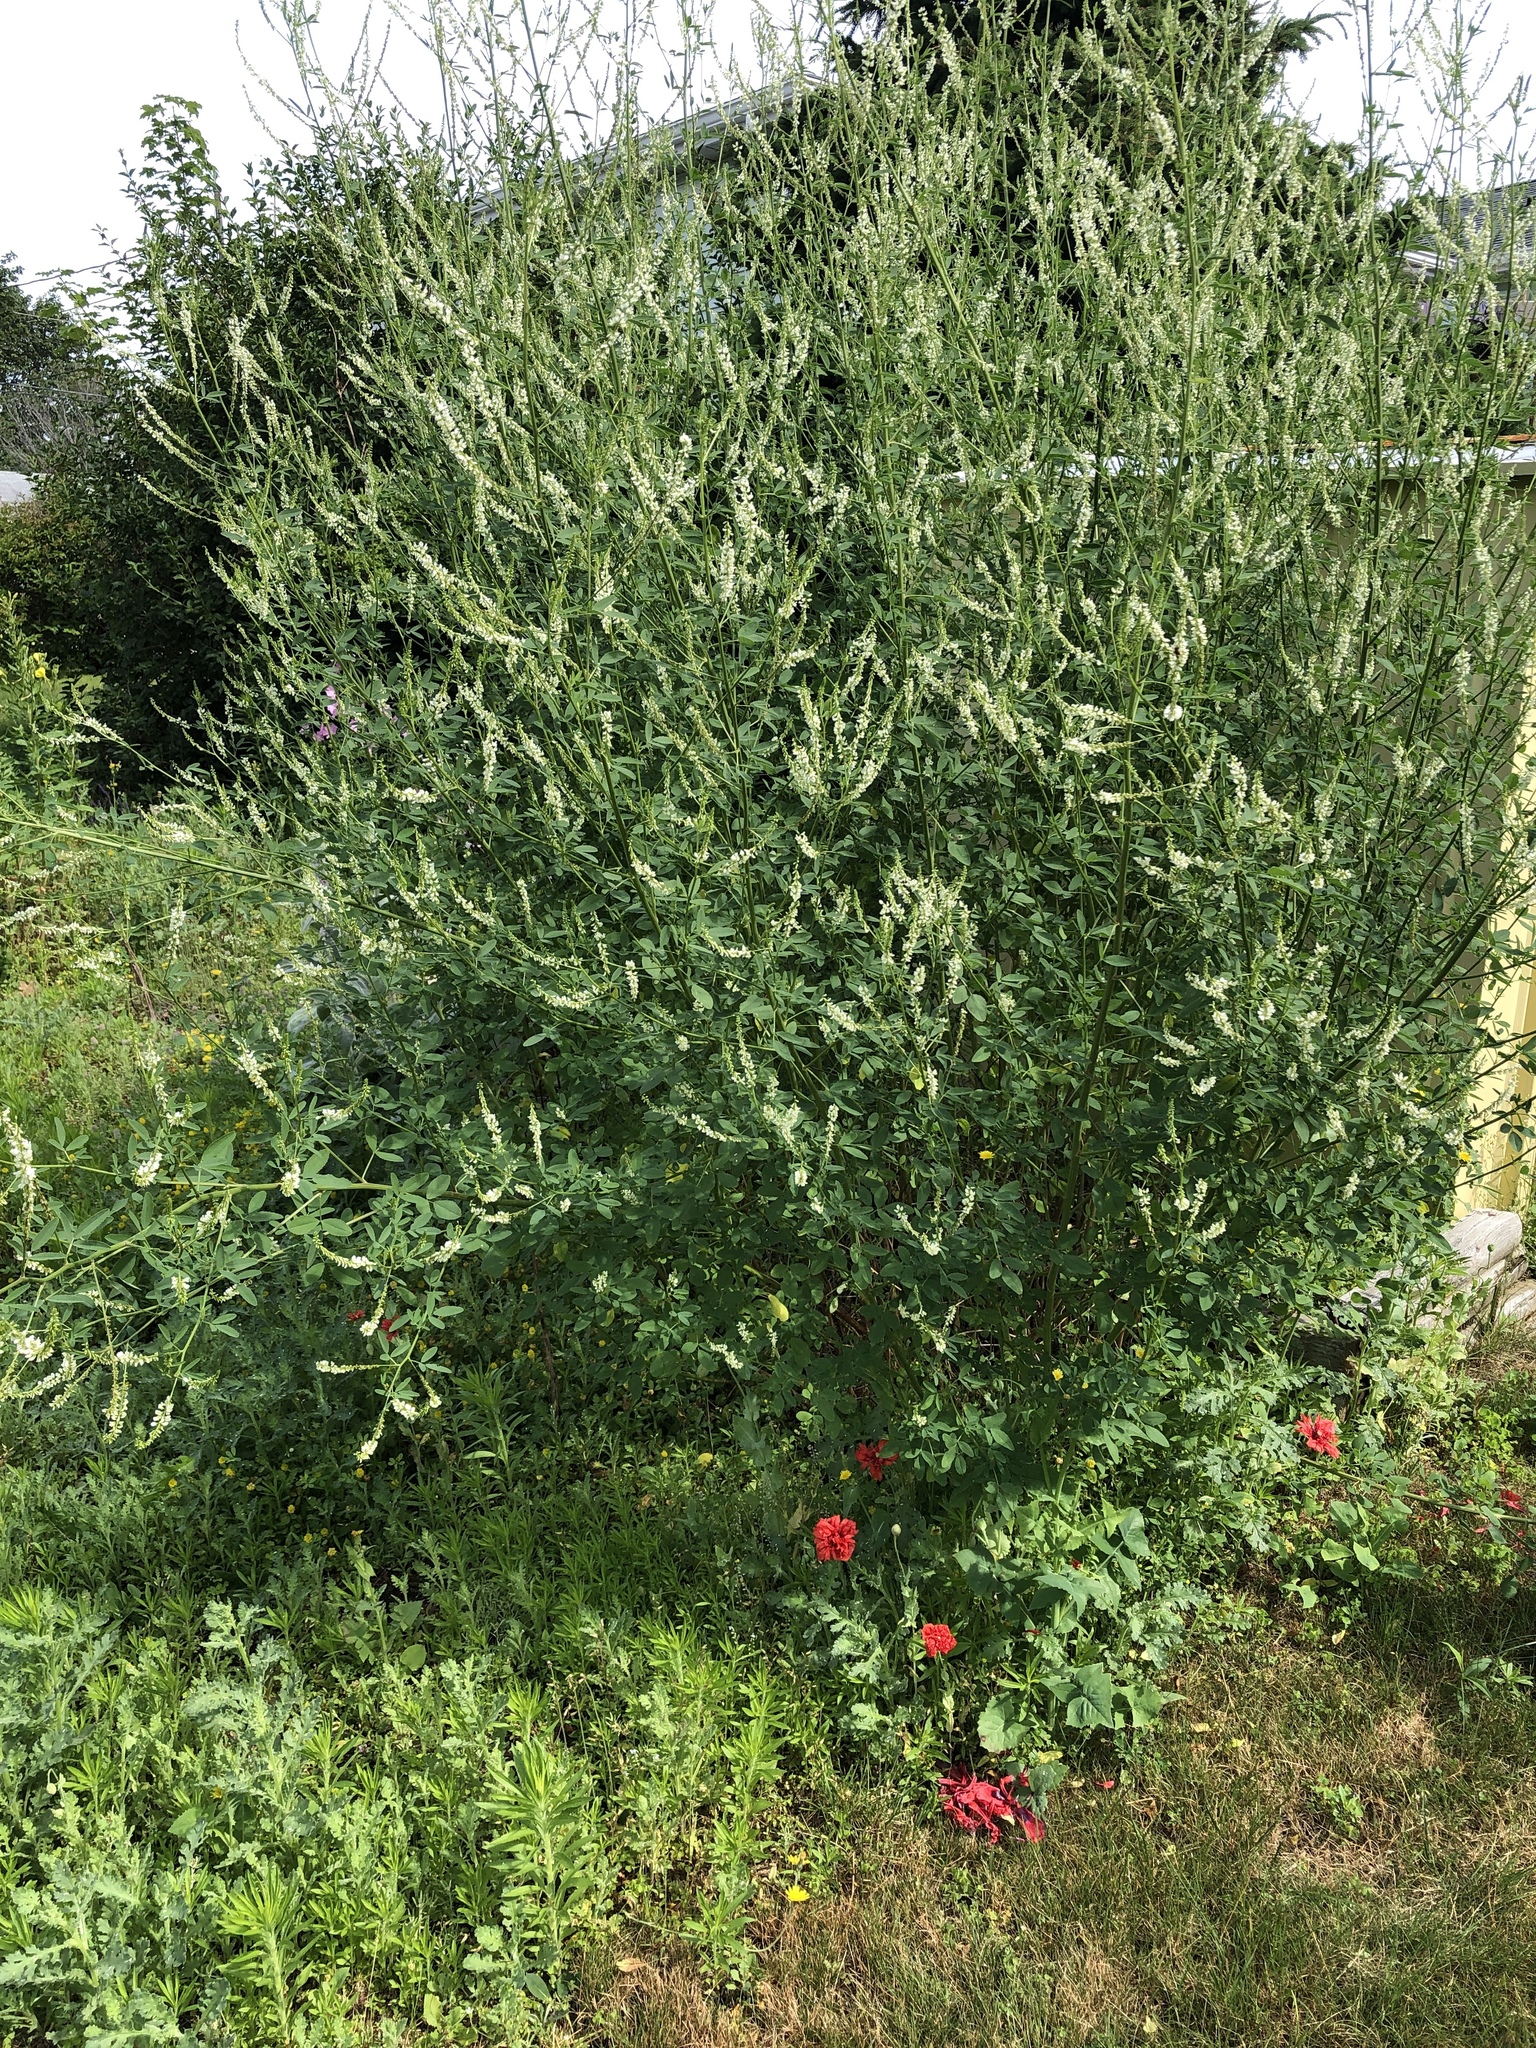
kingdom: Plantae
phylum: Tracheophyta
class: Magnoliopsida
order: Fabales
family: Fabaceae
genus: Melilotus
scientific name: Melilotus albus
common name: White melilot
